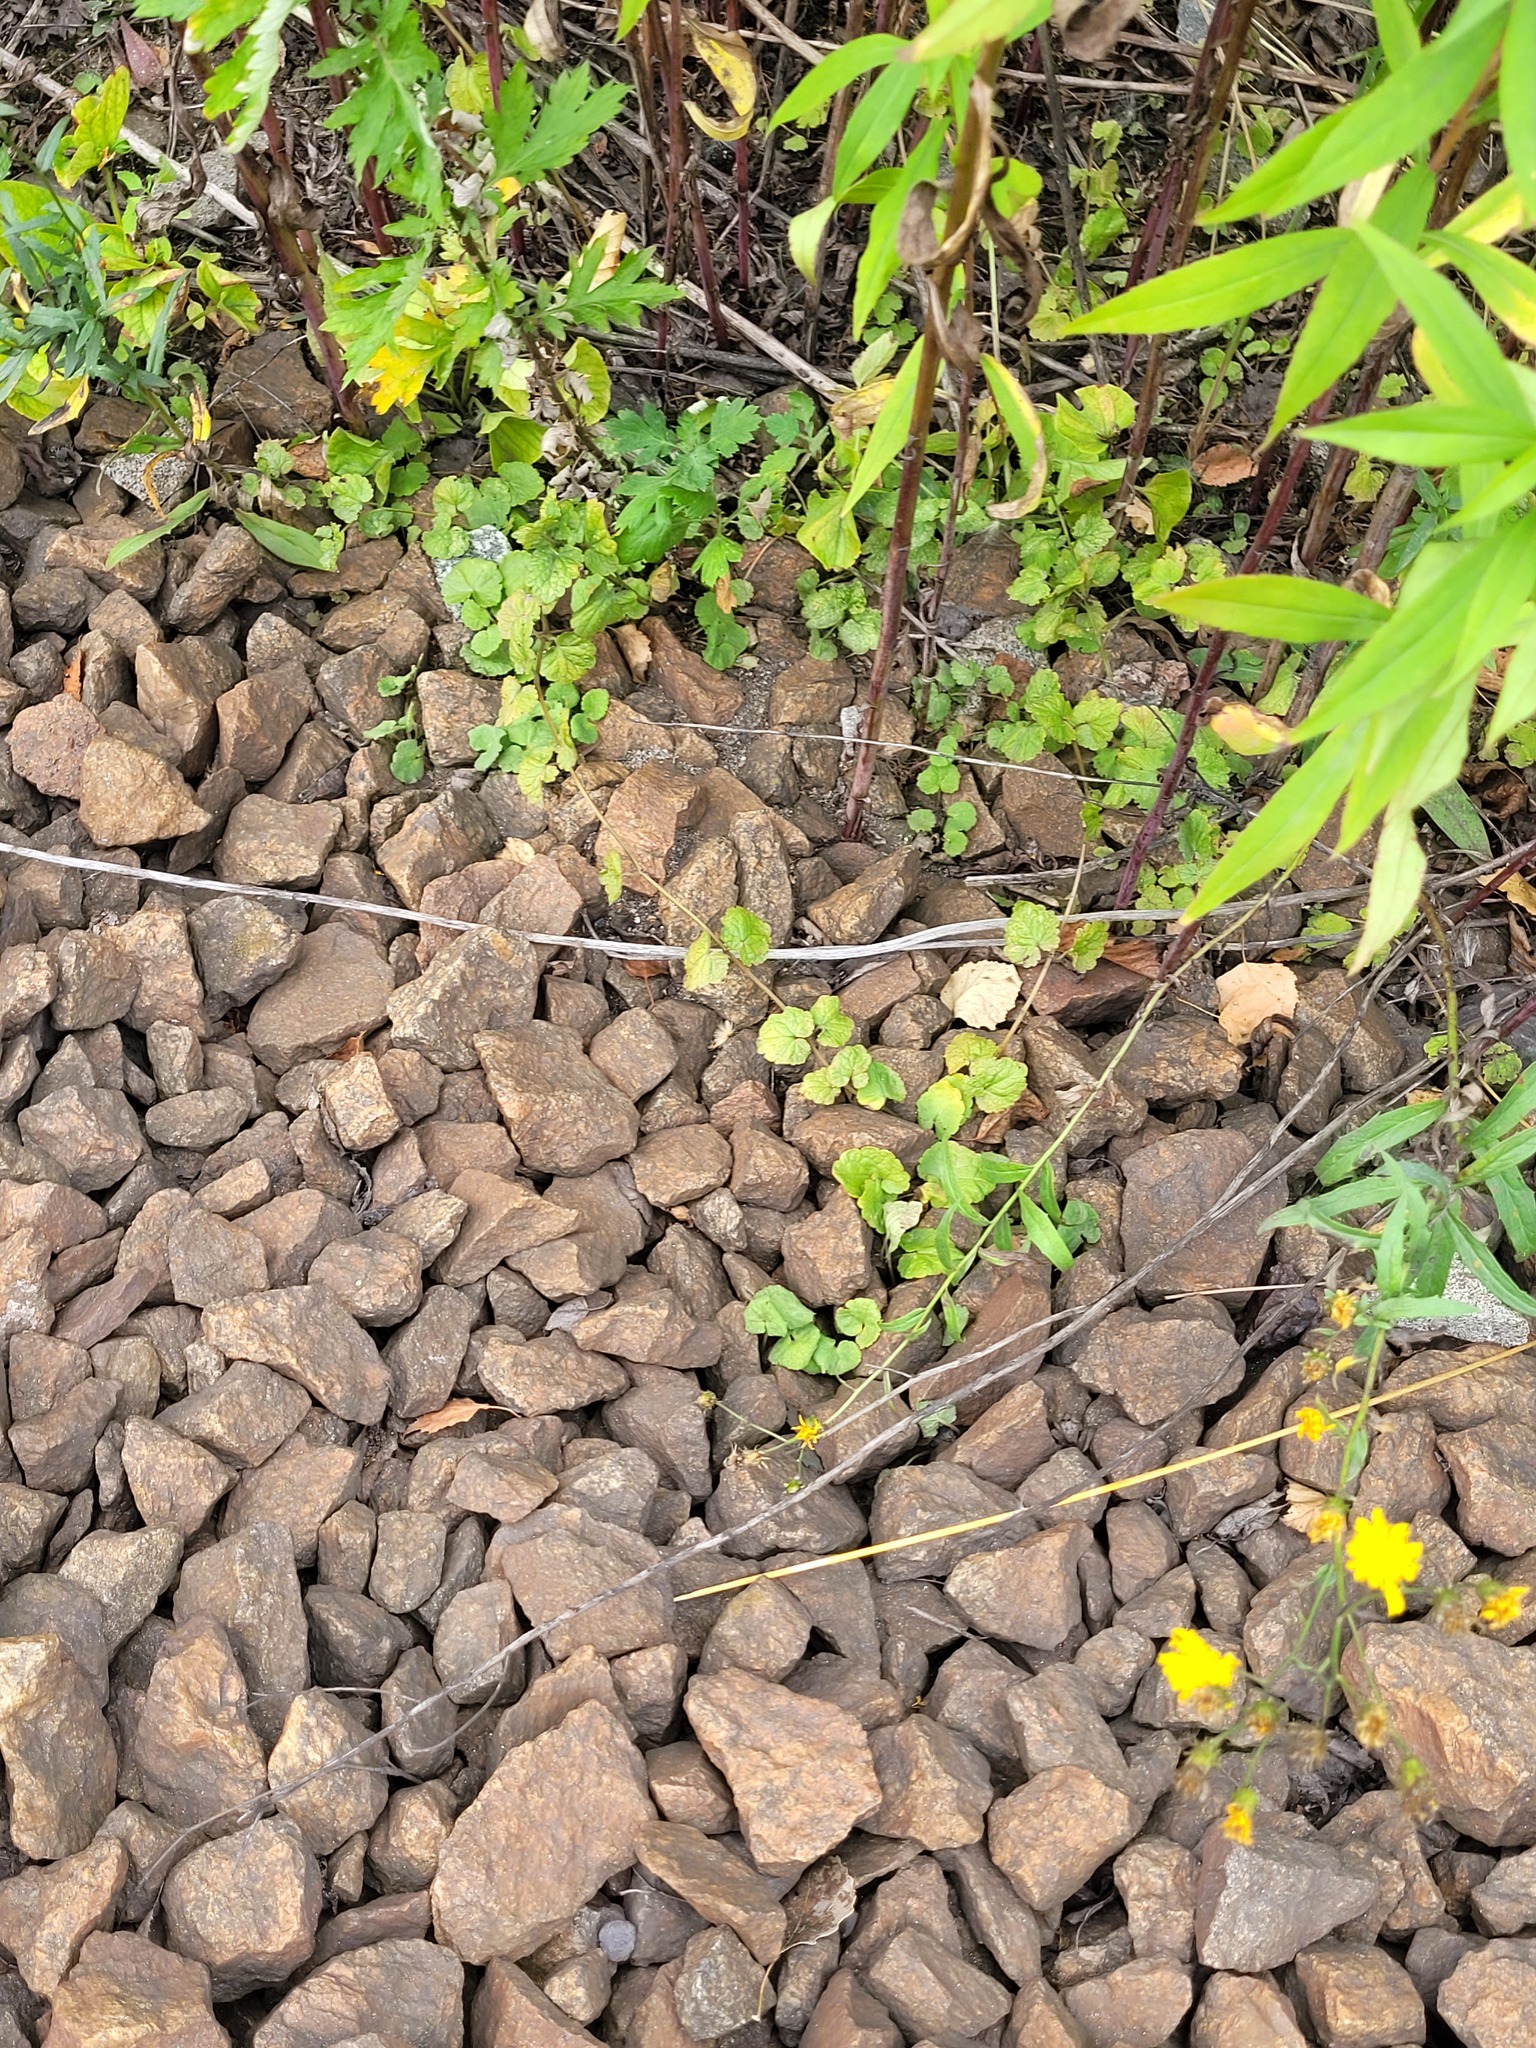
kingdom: Plantae
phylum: Tracheophyta
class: Magnoliopsida
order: Lamiales
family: Lamiaceae
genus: Glechoma
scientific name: Glechoma hederacea
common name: Ground ivy
